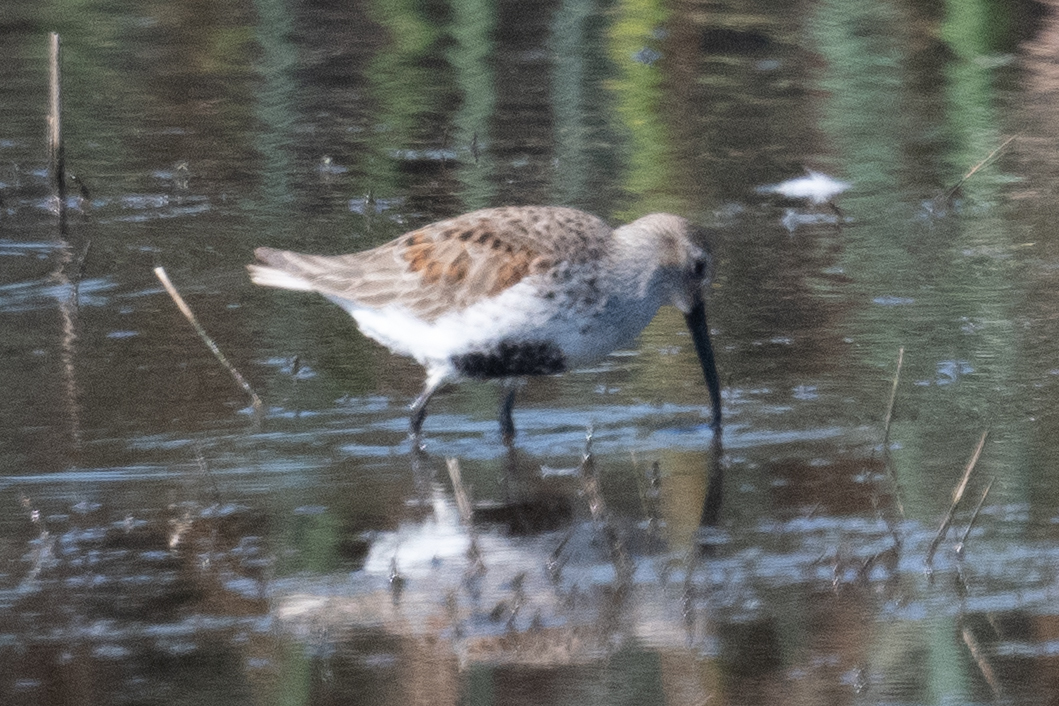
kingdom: Animalia
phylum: Chordata
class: Aves
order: Charadriiformes
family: Scolopacidae
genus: Calidris
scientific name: Calidris alpina
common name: Dunlin
